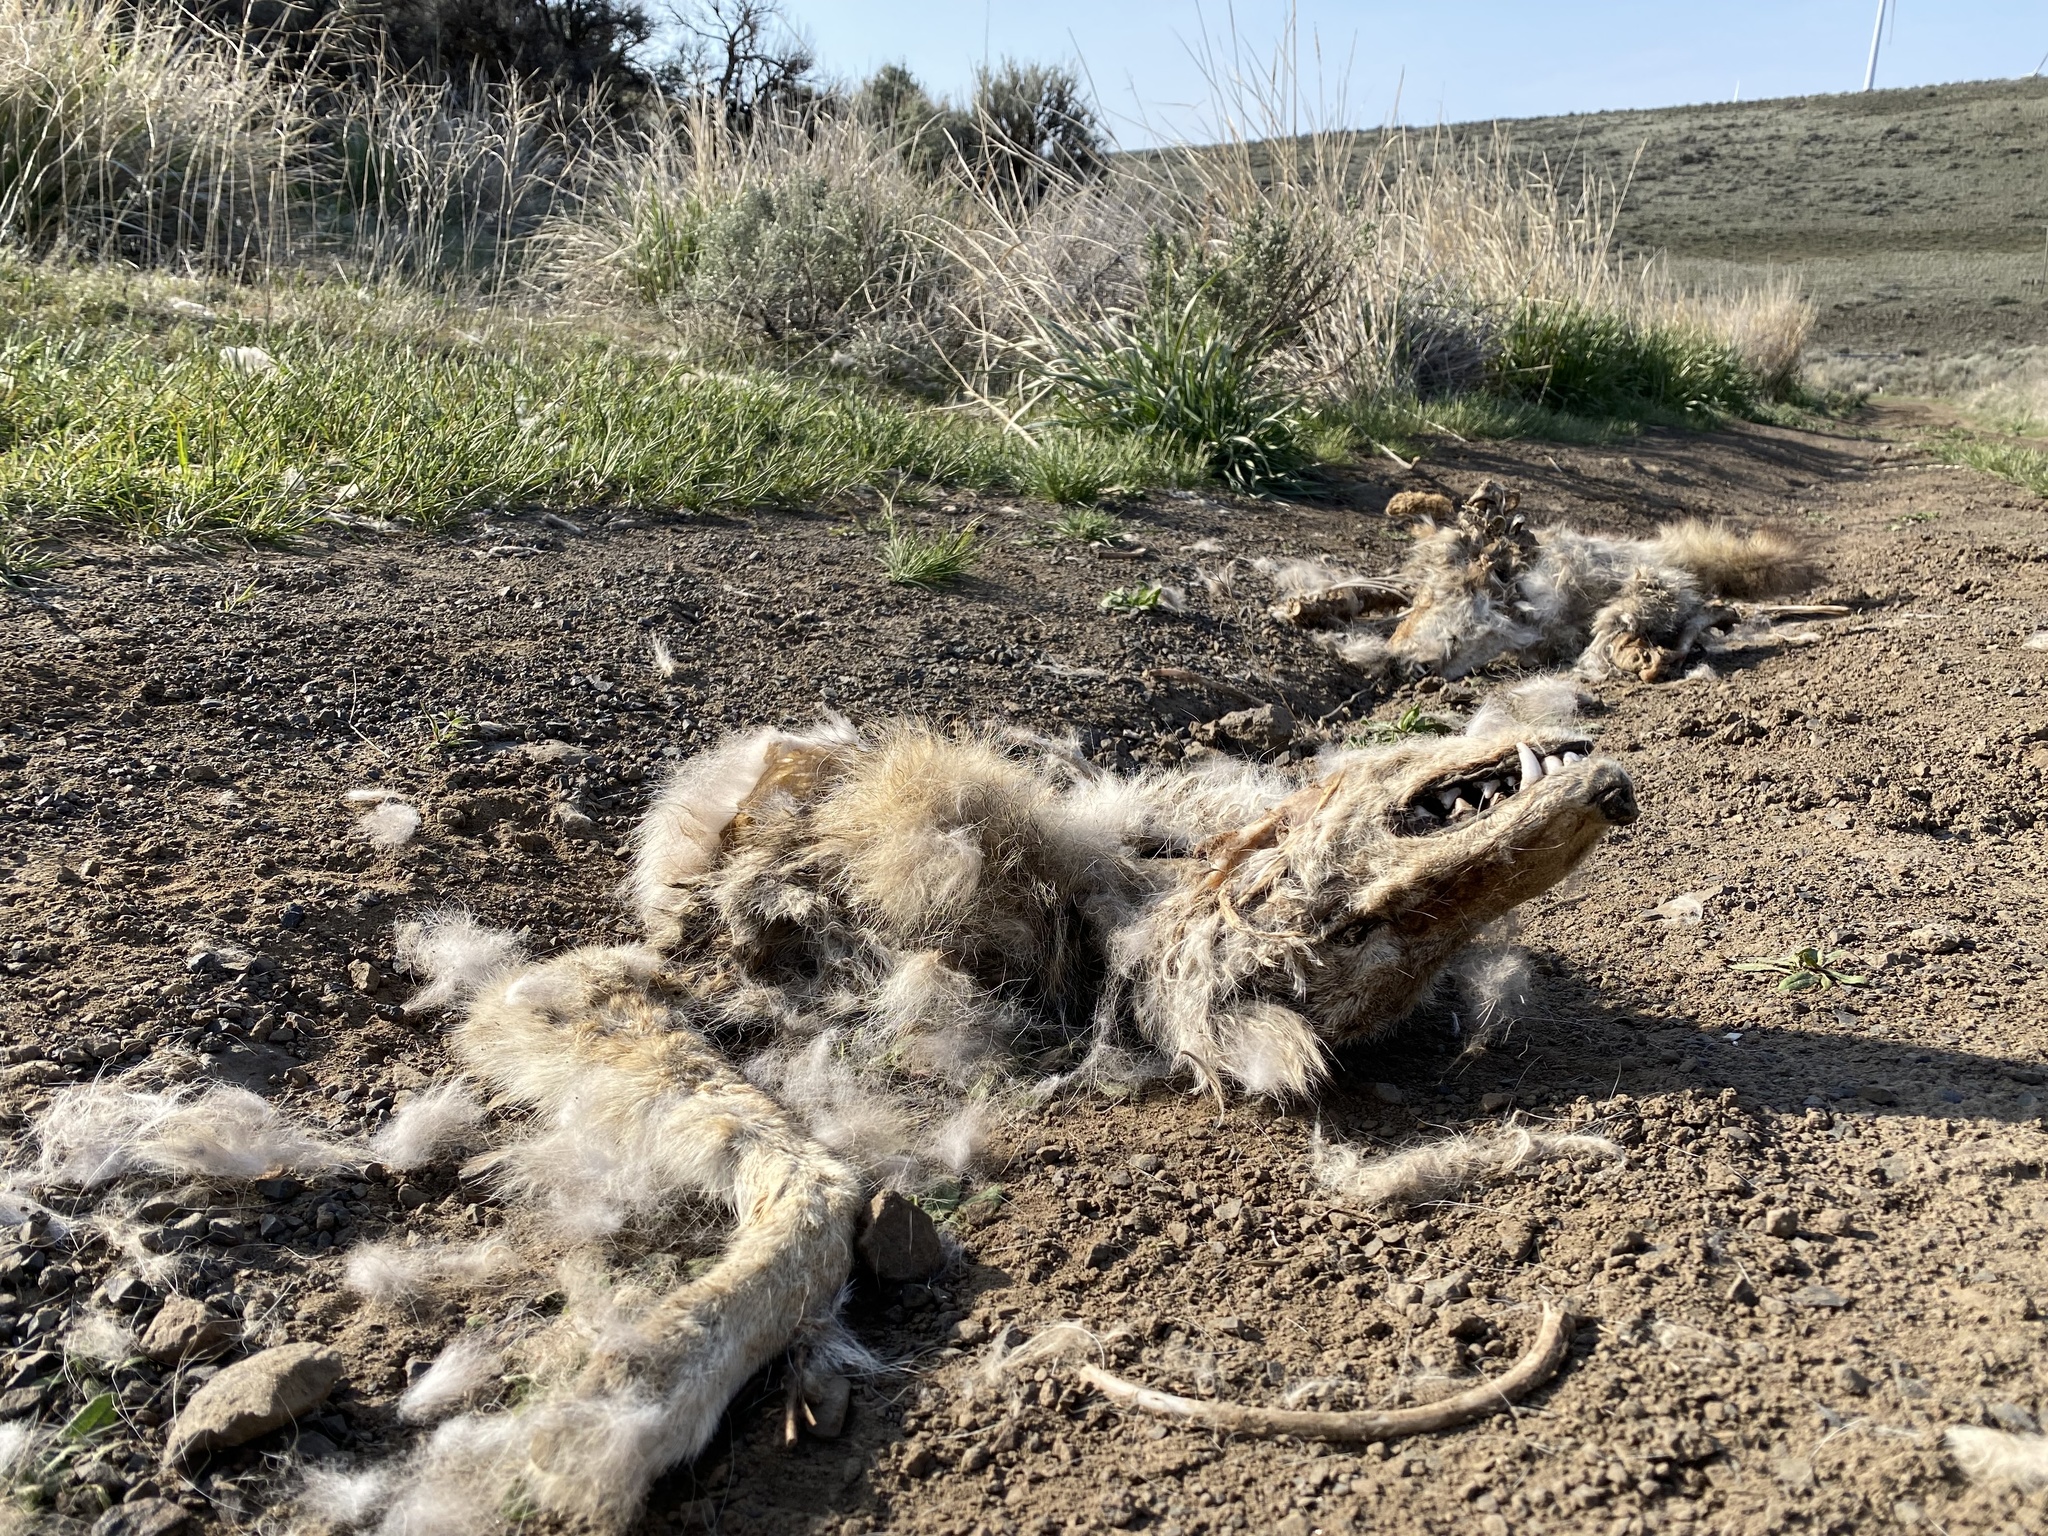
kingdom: Animalia
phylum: Chordata
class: Mammalia
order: Carnivora
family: Canidae
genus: Canis
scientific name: Canis latrans
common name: Coyote
